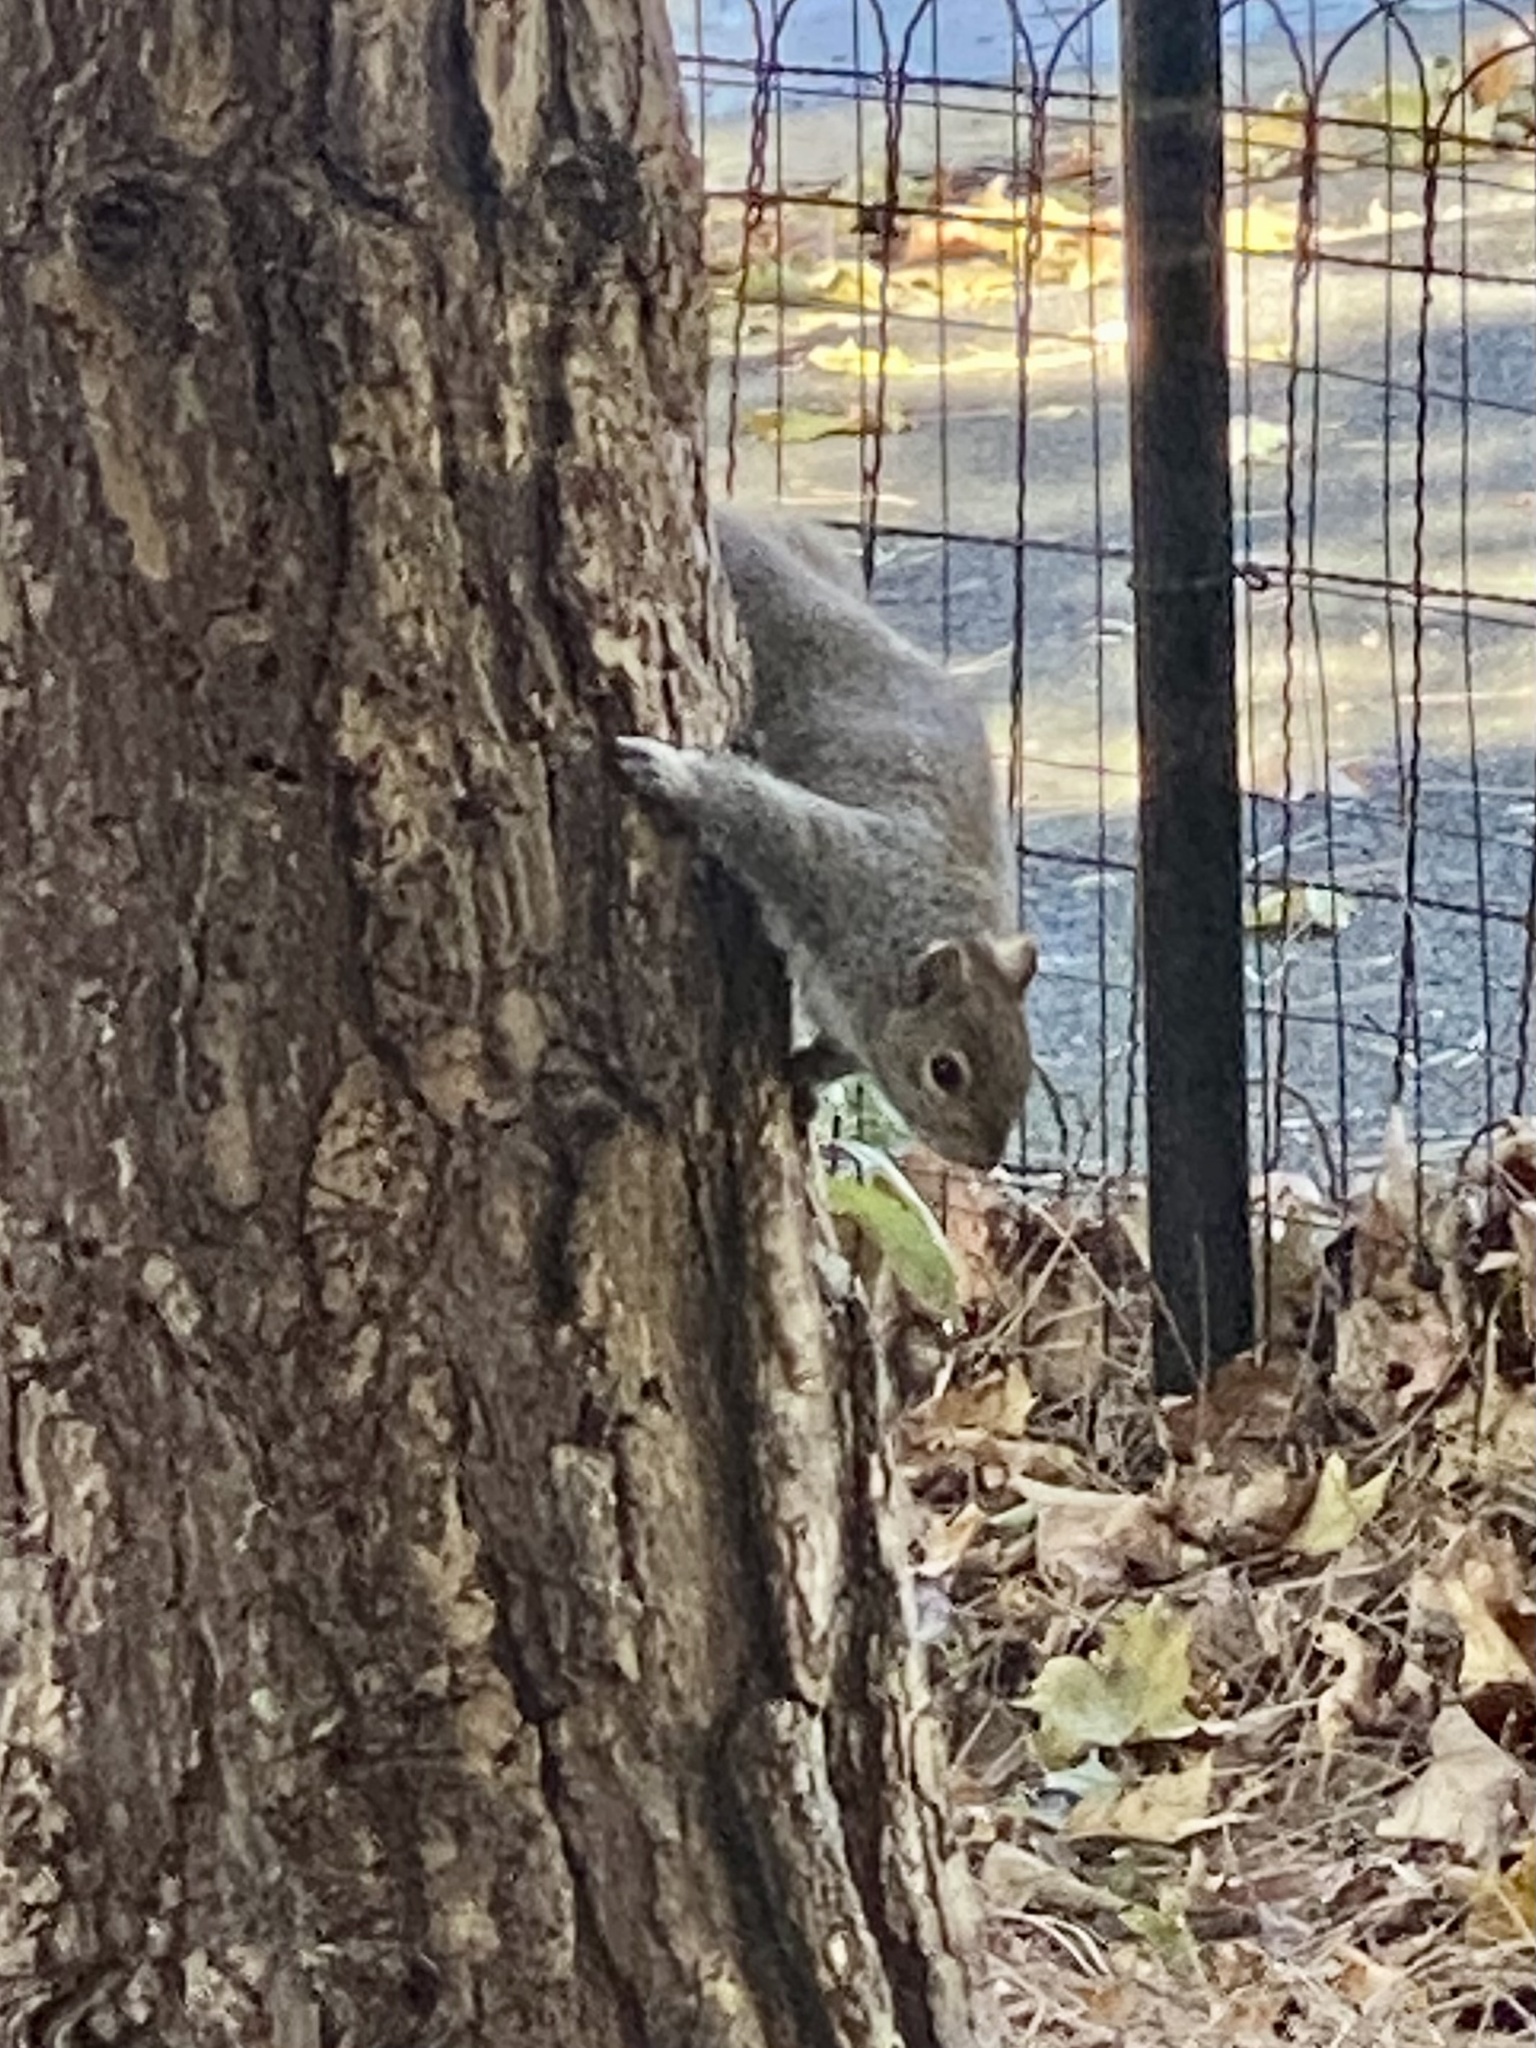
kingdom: Animalia
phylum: Chordata
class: Mammalia
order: Rodentia
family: Sciuridae
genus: Sciurus
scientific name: Sciurus carolinensis
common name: Eastern gray squirrel
